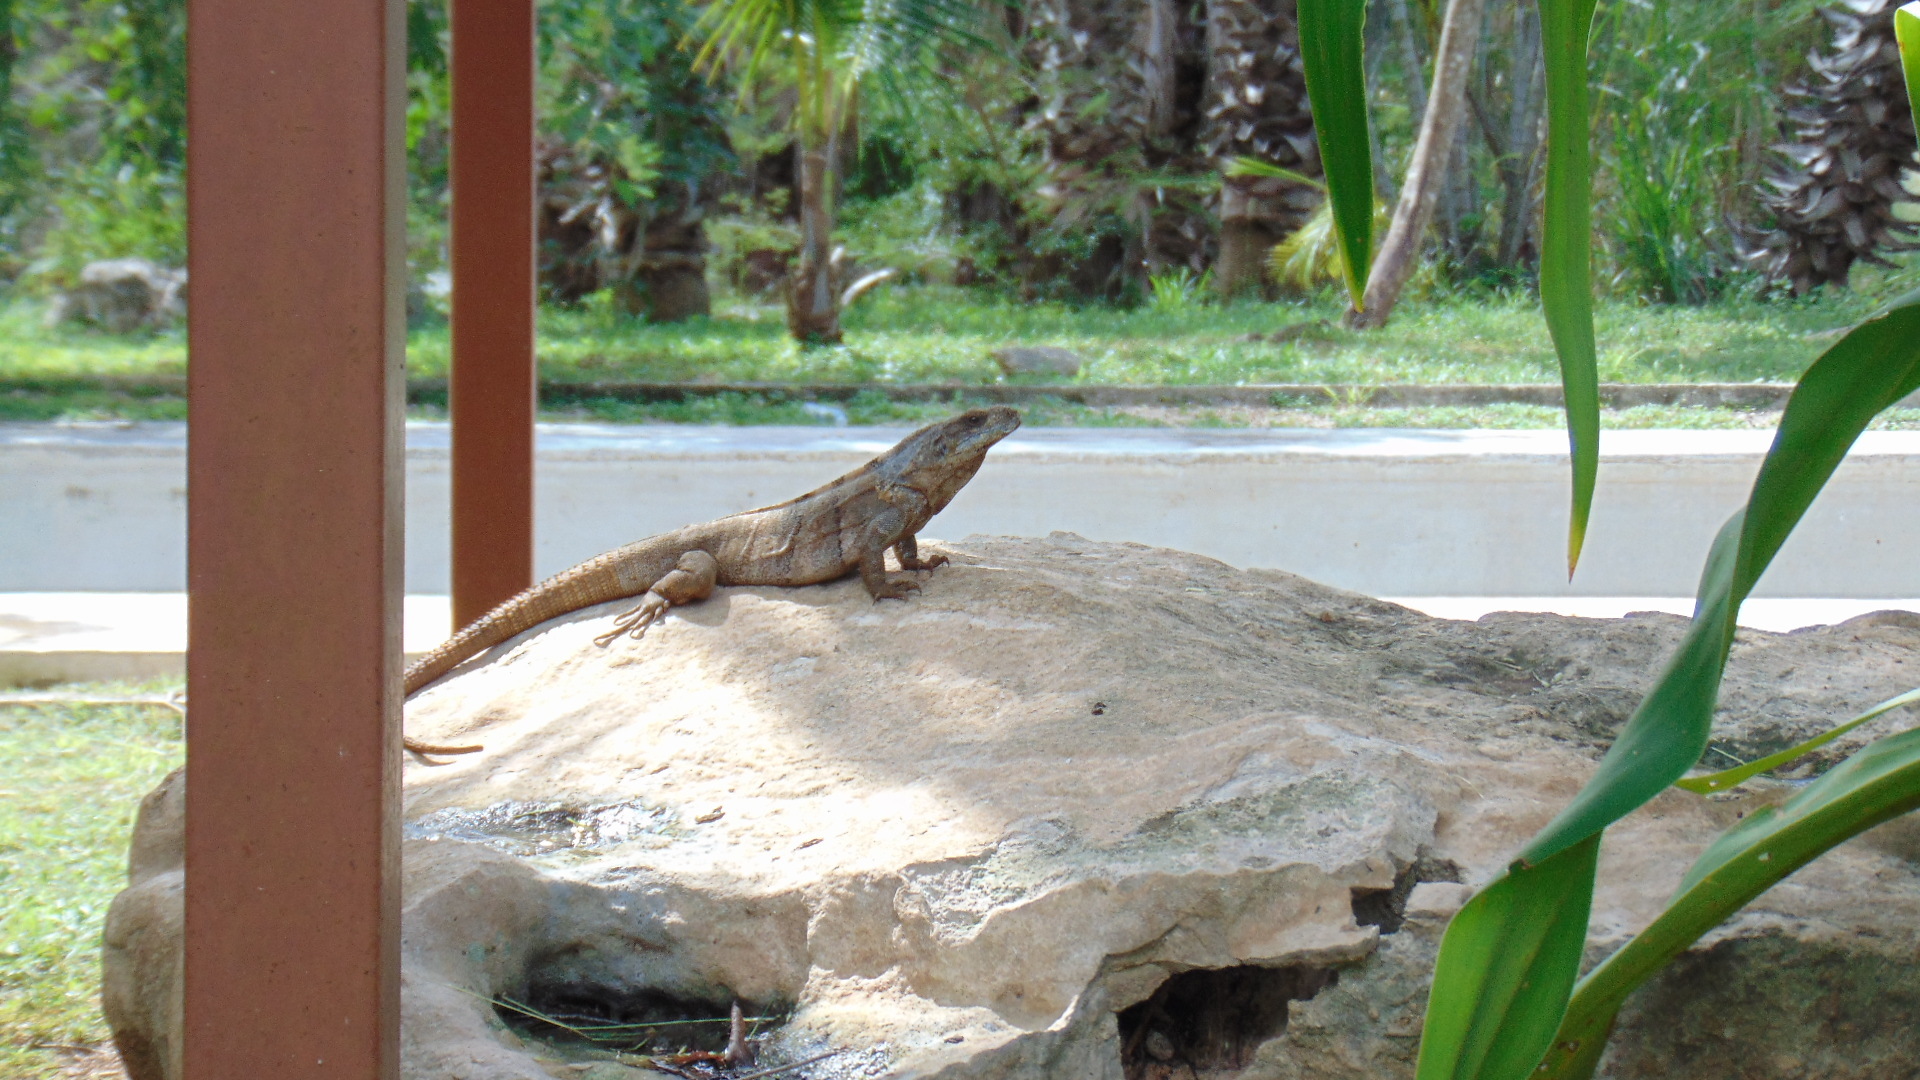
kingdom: Animalia
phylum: Chordata
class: Squamata
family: Iguanidae
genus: Ctenosaura
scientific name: Ctenosaura similis
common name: Black spiny-tailed iguana
